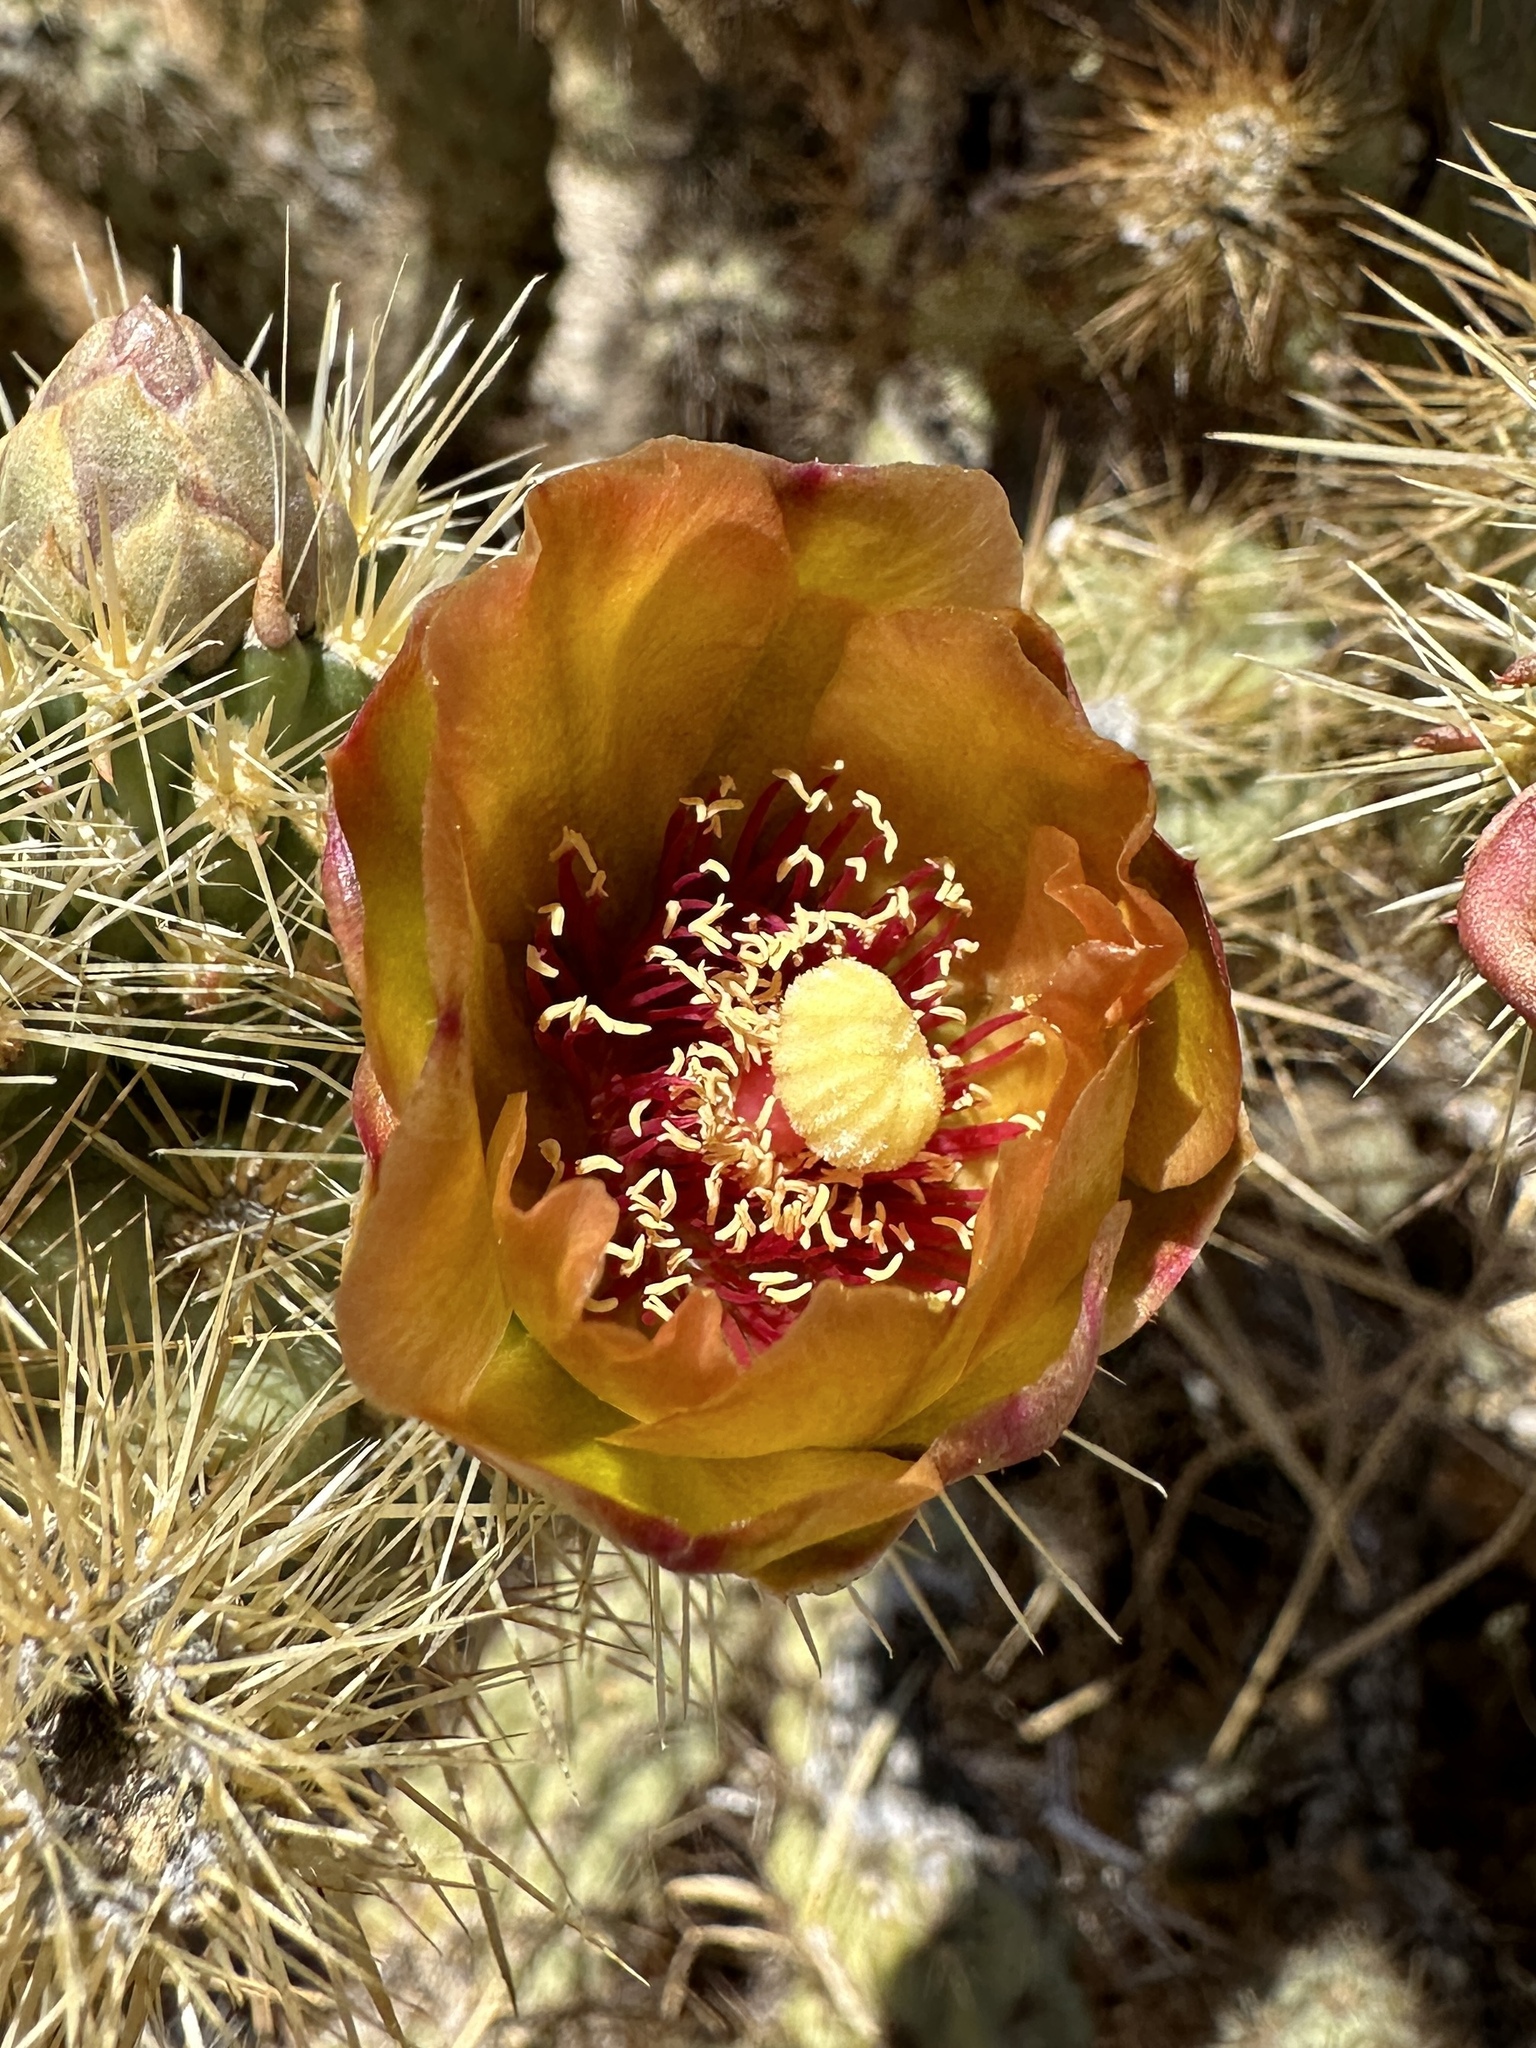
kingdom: Plantae
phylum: Tracheophyta
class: Magnoliopsida
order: Caryophyllales
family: Cactaceae
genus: Cylindropuntia
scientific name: Cylindropuntia wolfii
